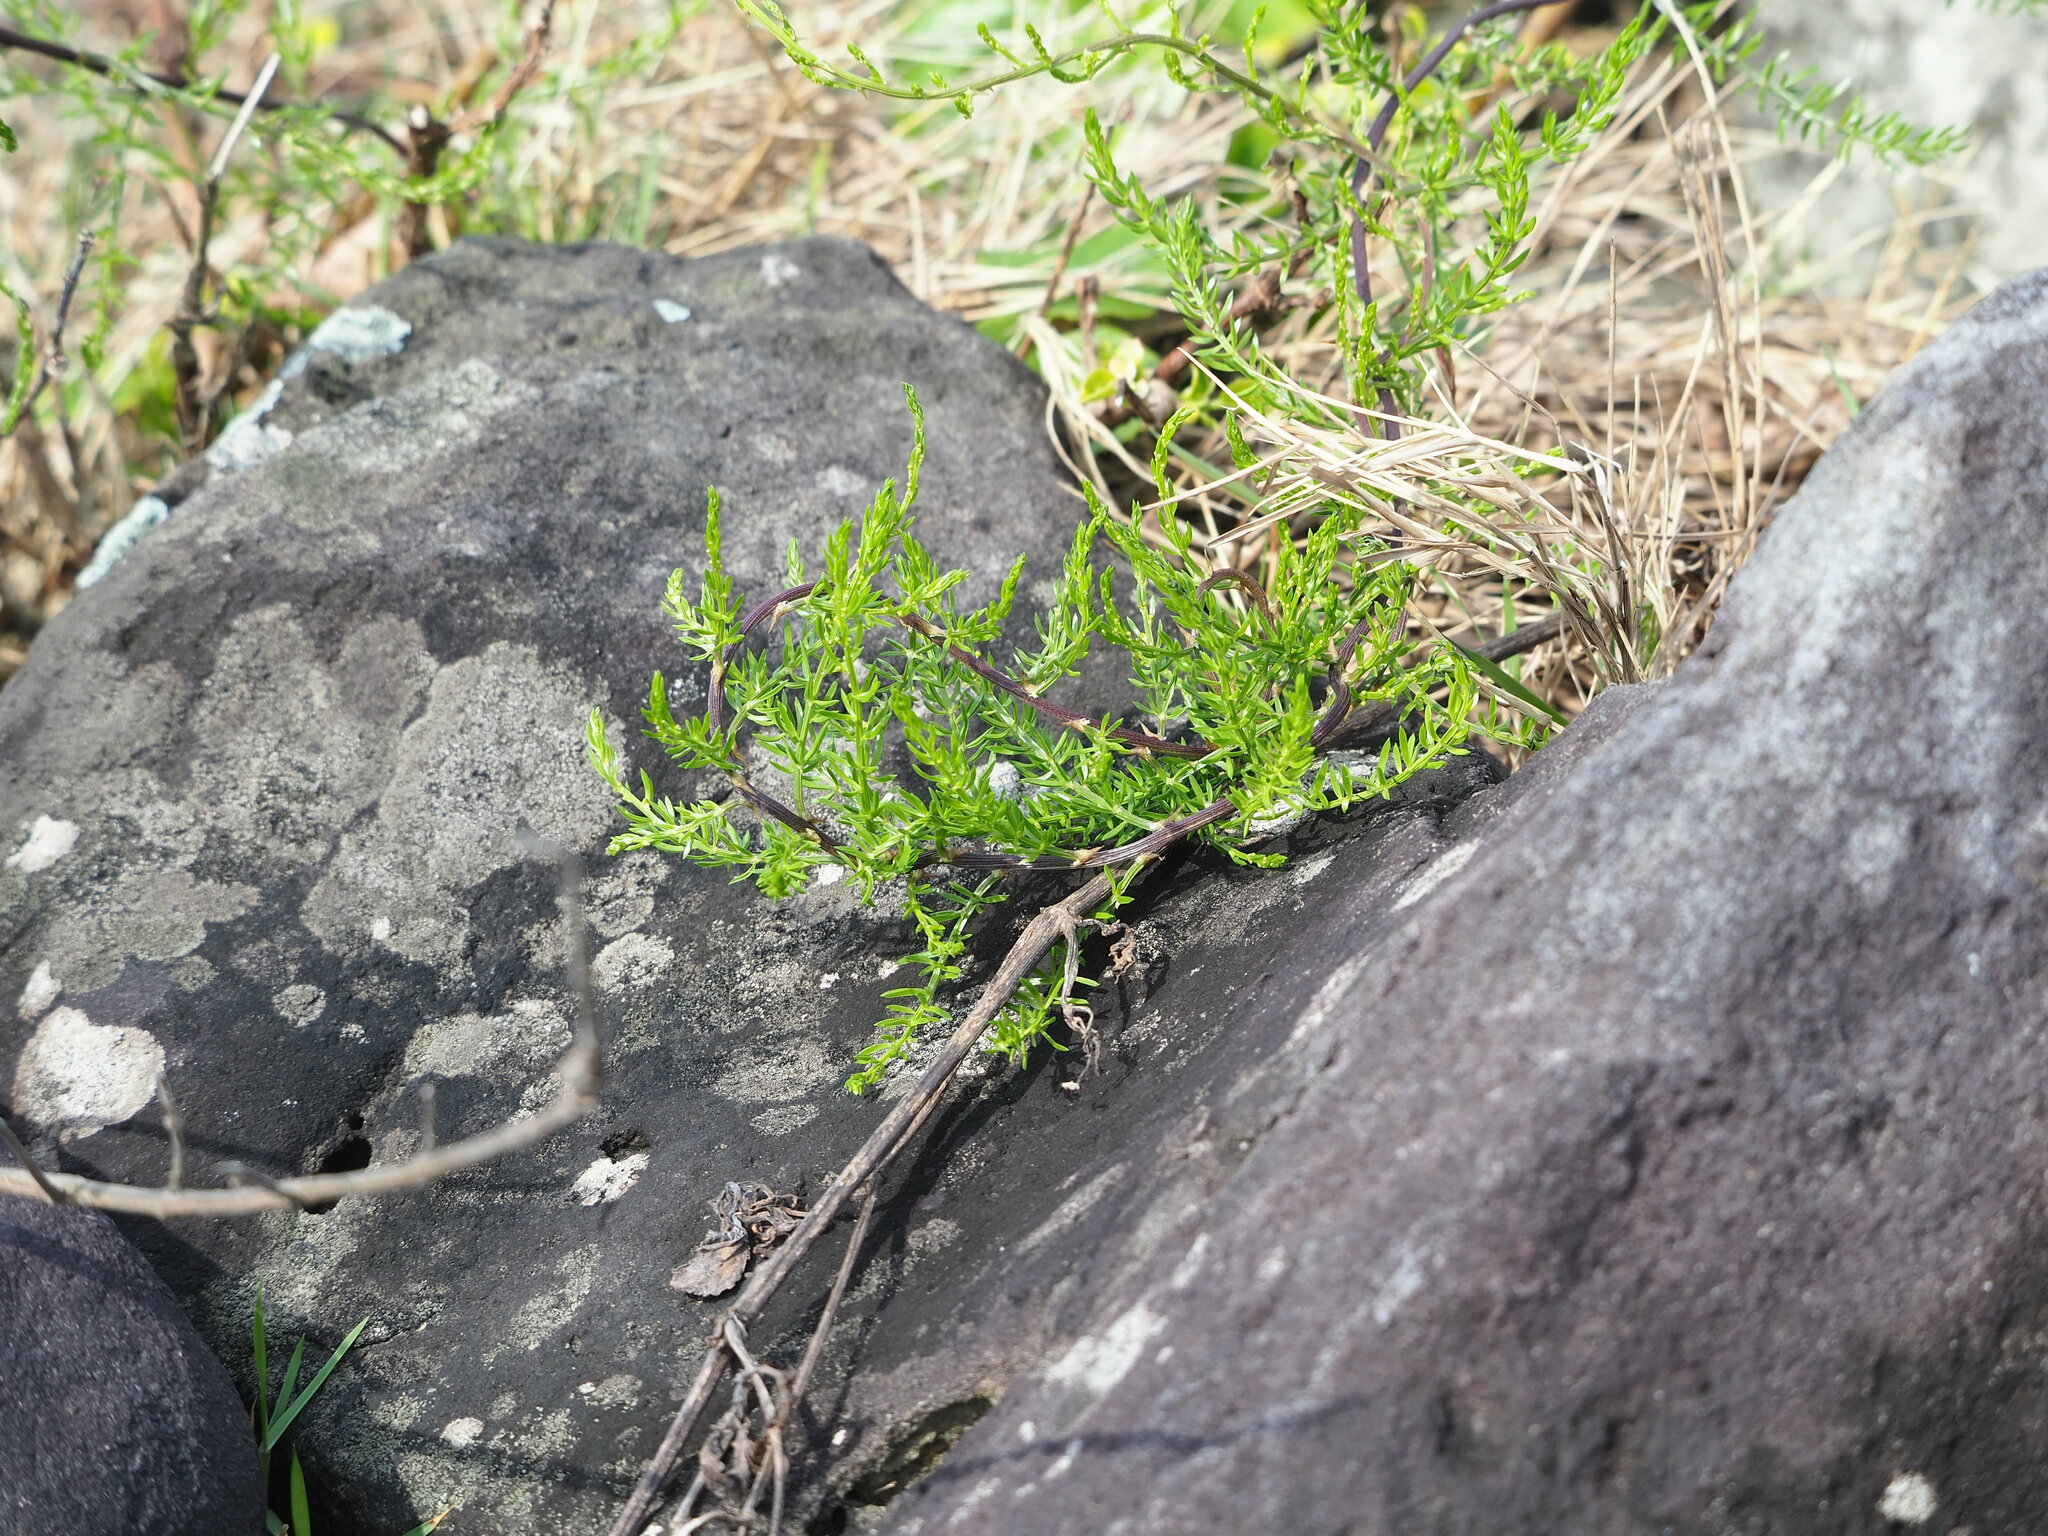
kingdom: Plantae
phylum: Tracheophyta
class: Liliopsida
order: Asparagales
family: Asparagaceae
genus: Asparagus
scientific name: Asparagus cochinchinensis
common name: Chinese asparagus
